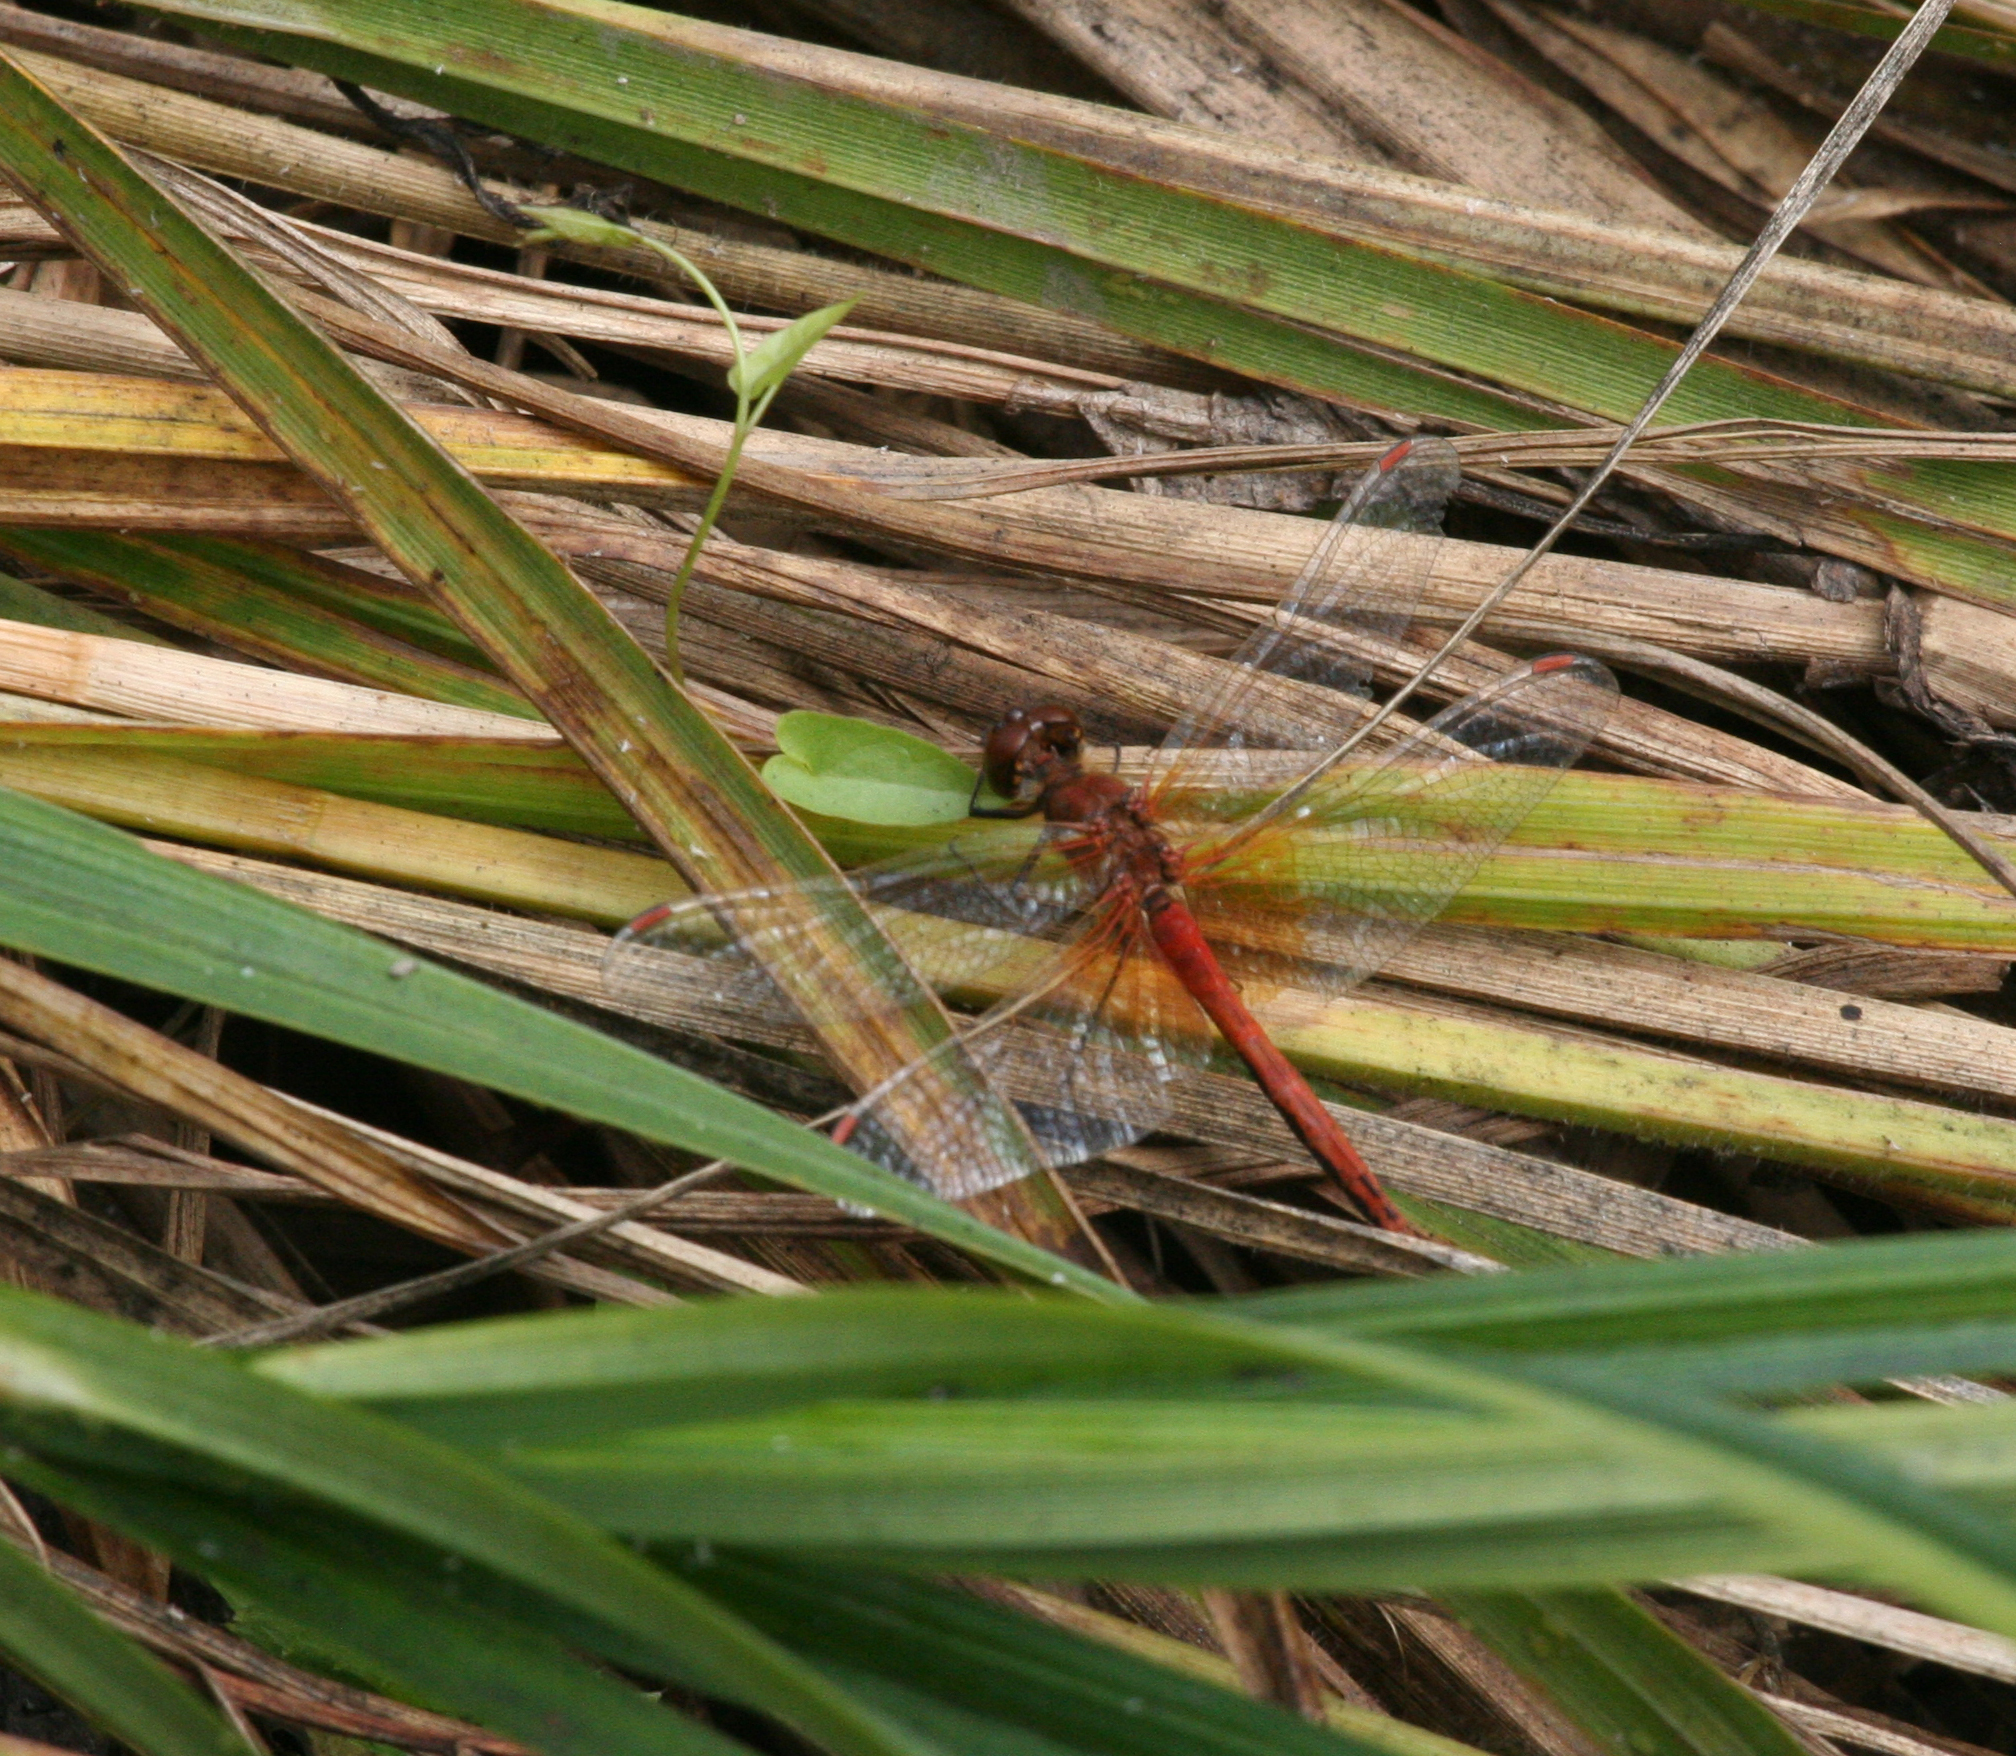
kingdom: Animalia
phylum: Arthropoda
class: Insecta
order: Odonata
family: Libellulidae
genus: Sympetrum
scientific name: Sympetrum flaveolum
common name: Yellow-winged darter
